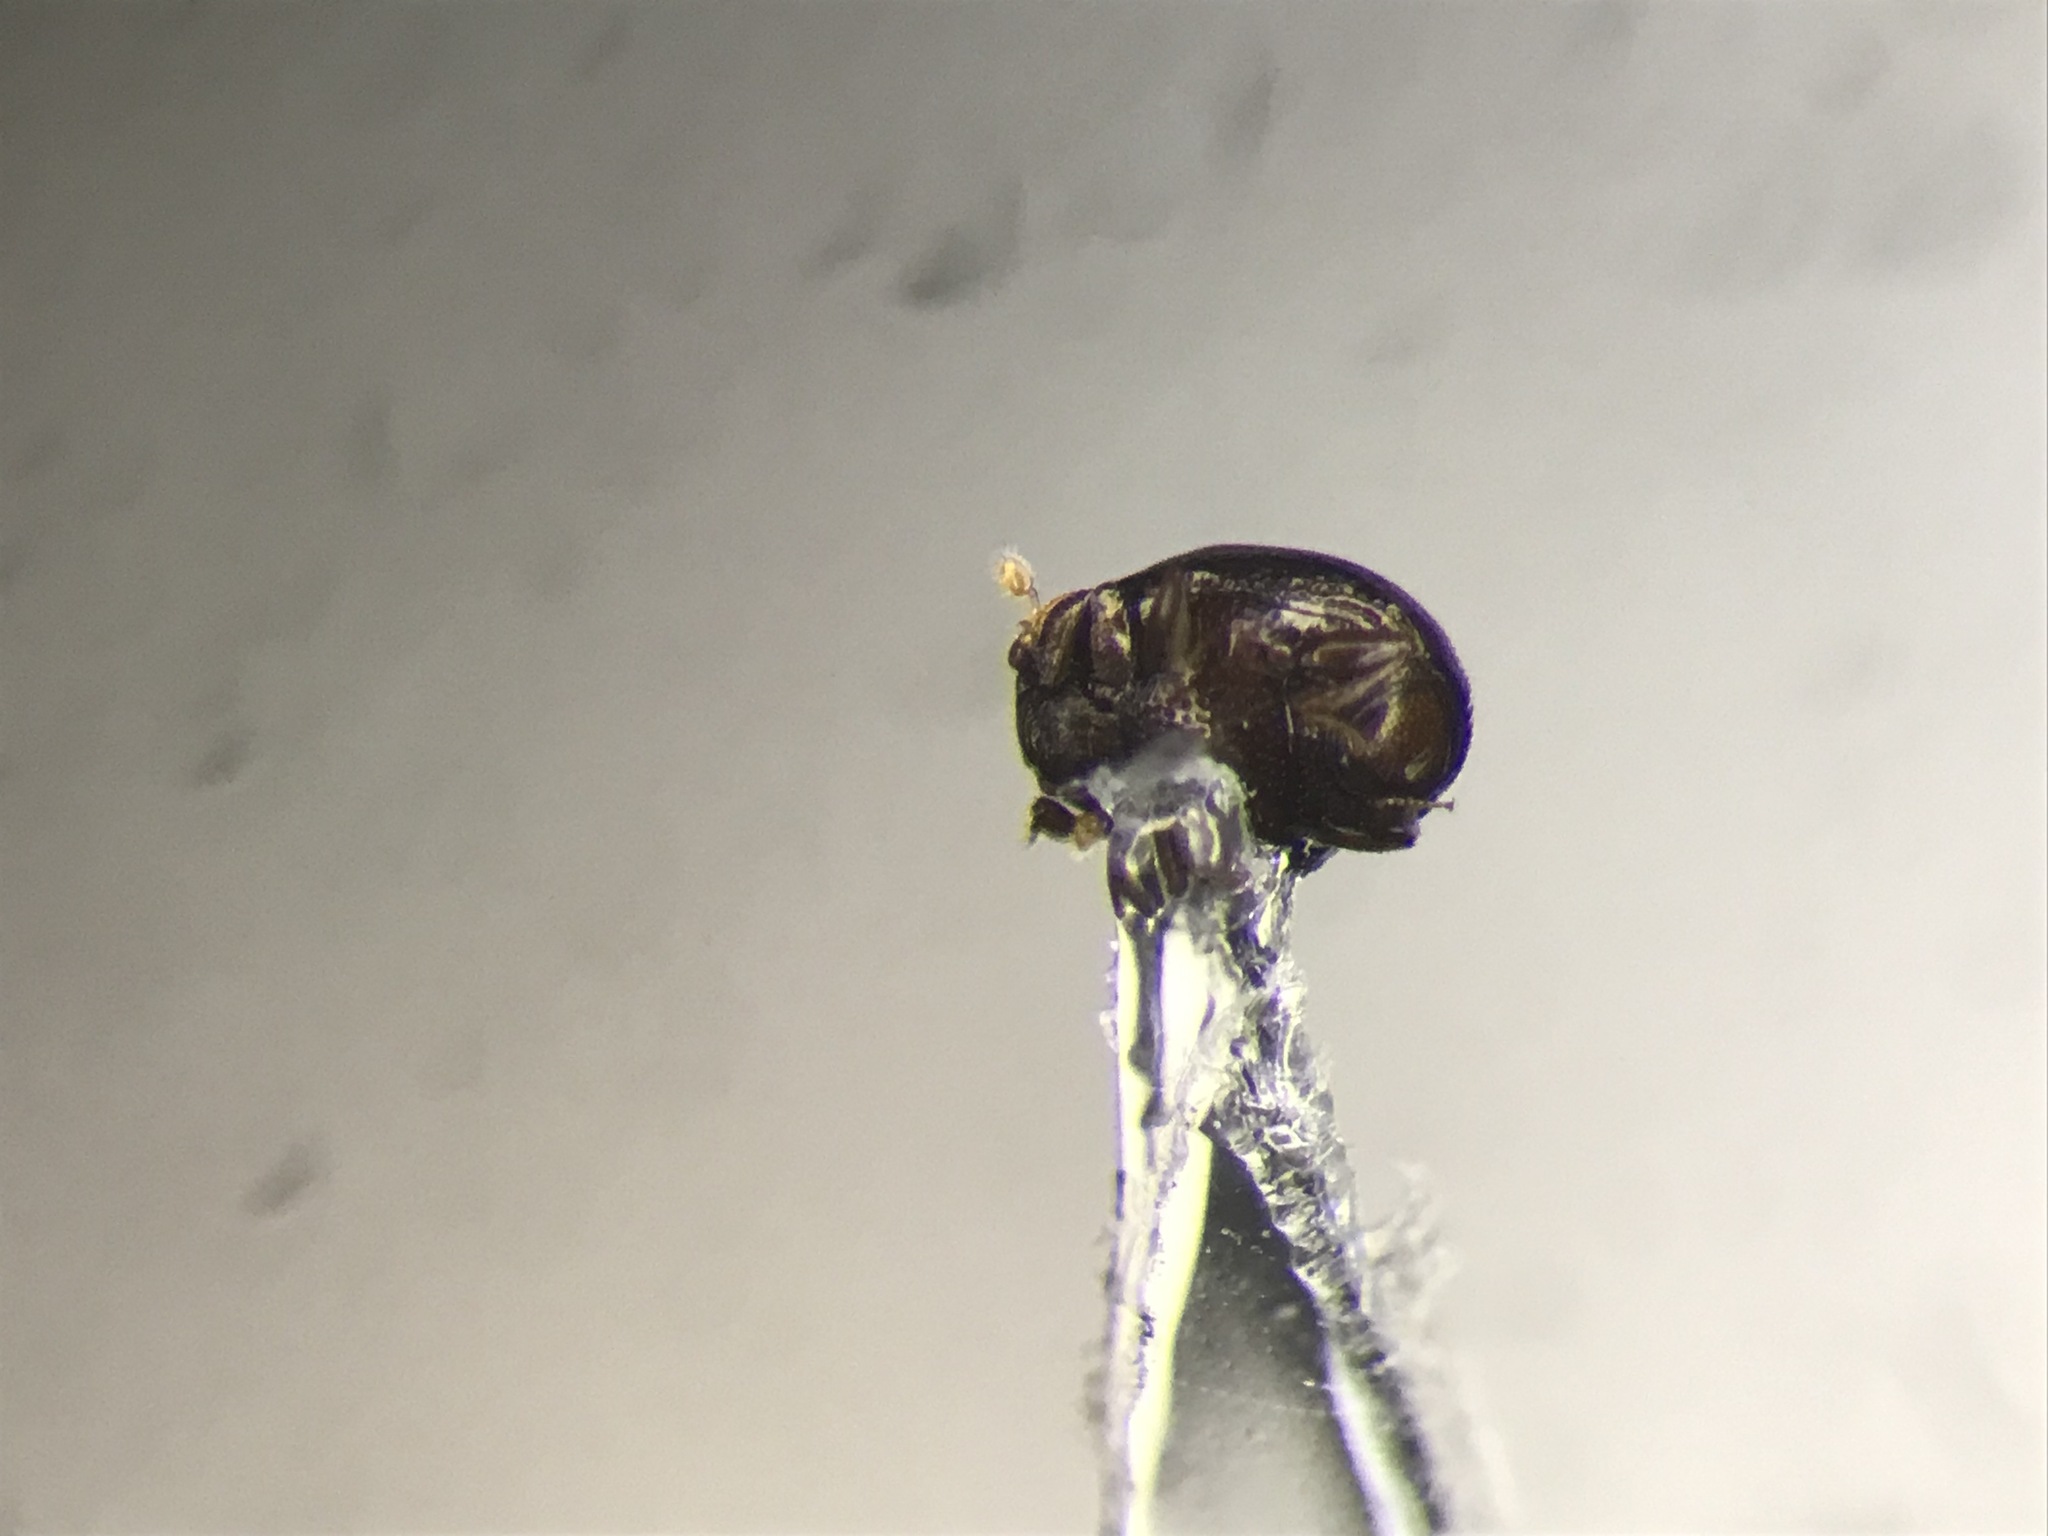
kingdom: Animalia
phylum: Arthropoda
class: Insecta
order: Coleoptera
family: Histeridae
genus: Bacanius
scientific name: Bacanius punctiformis
